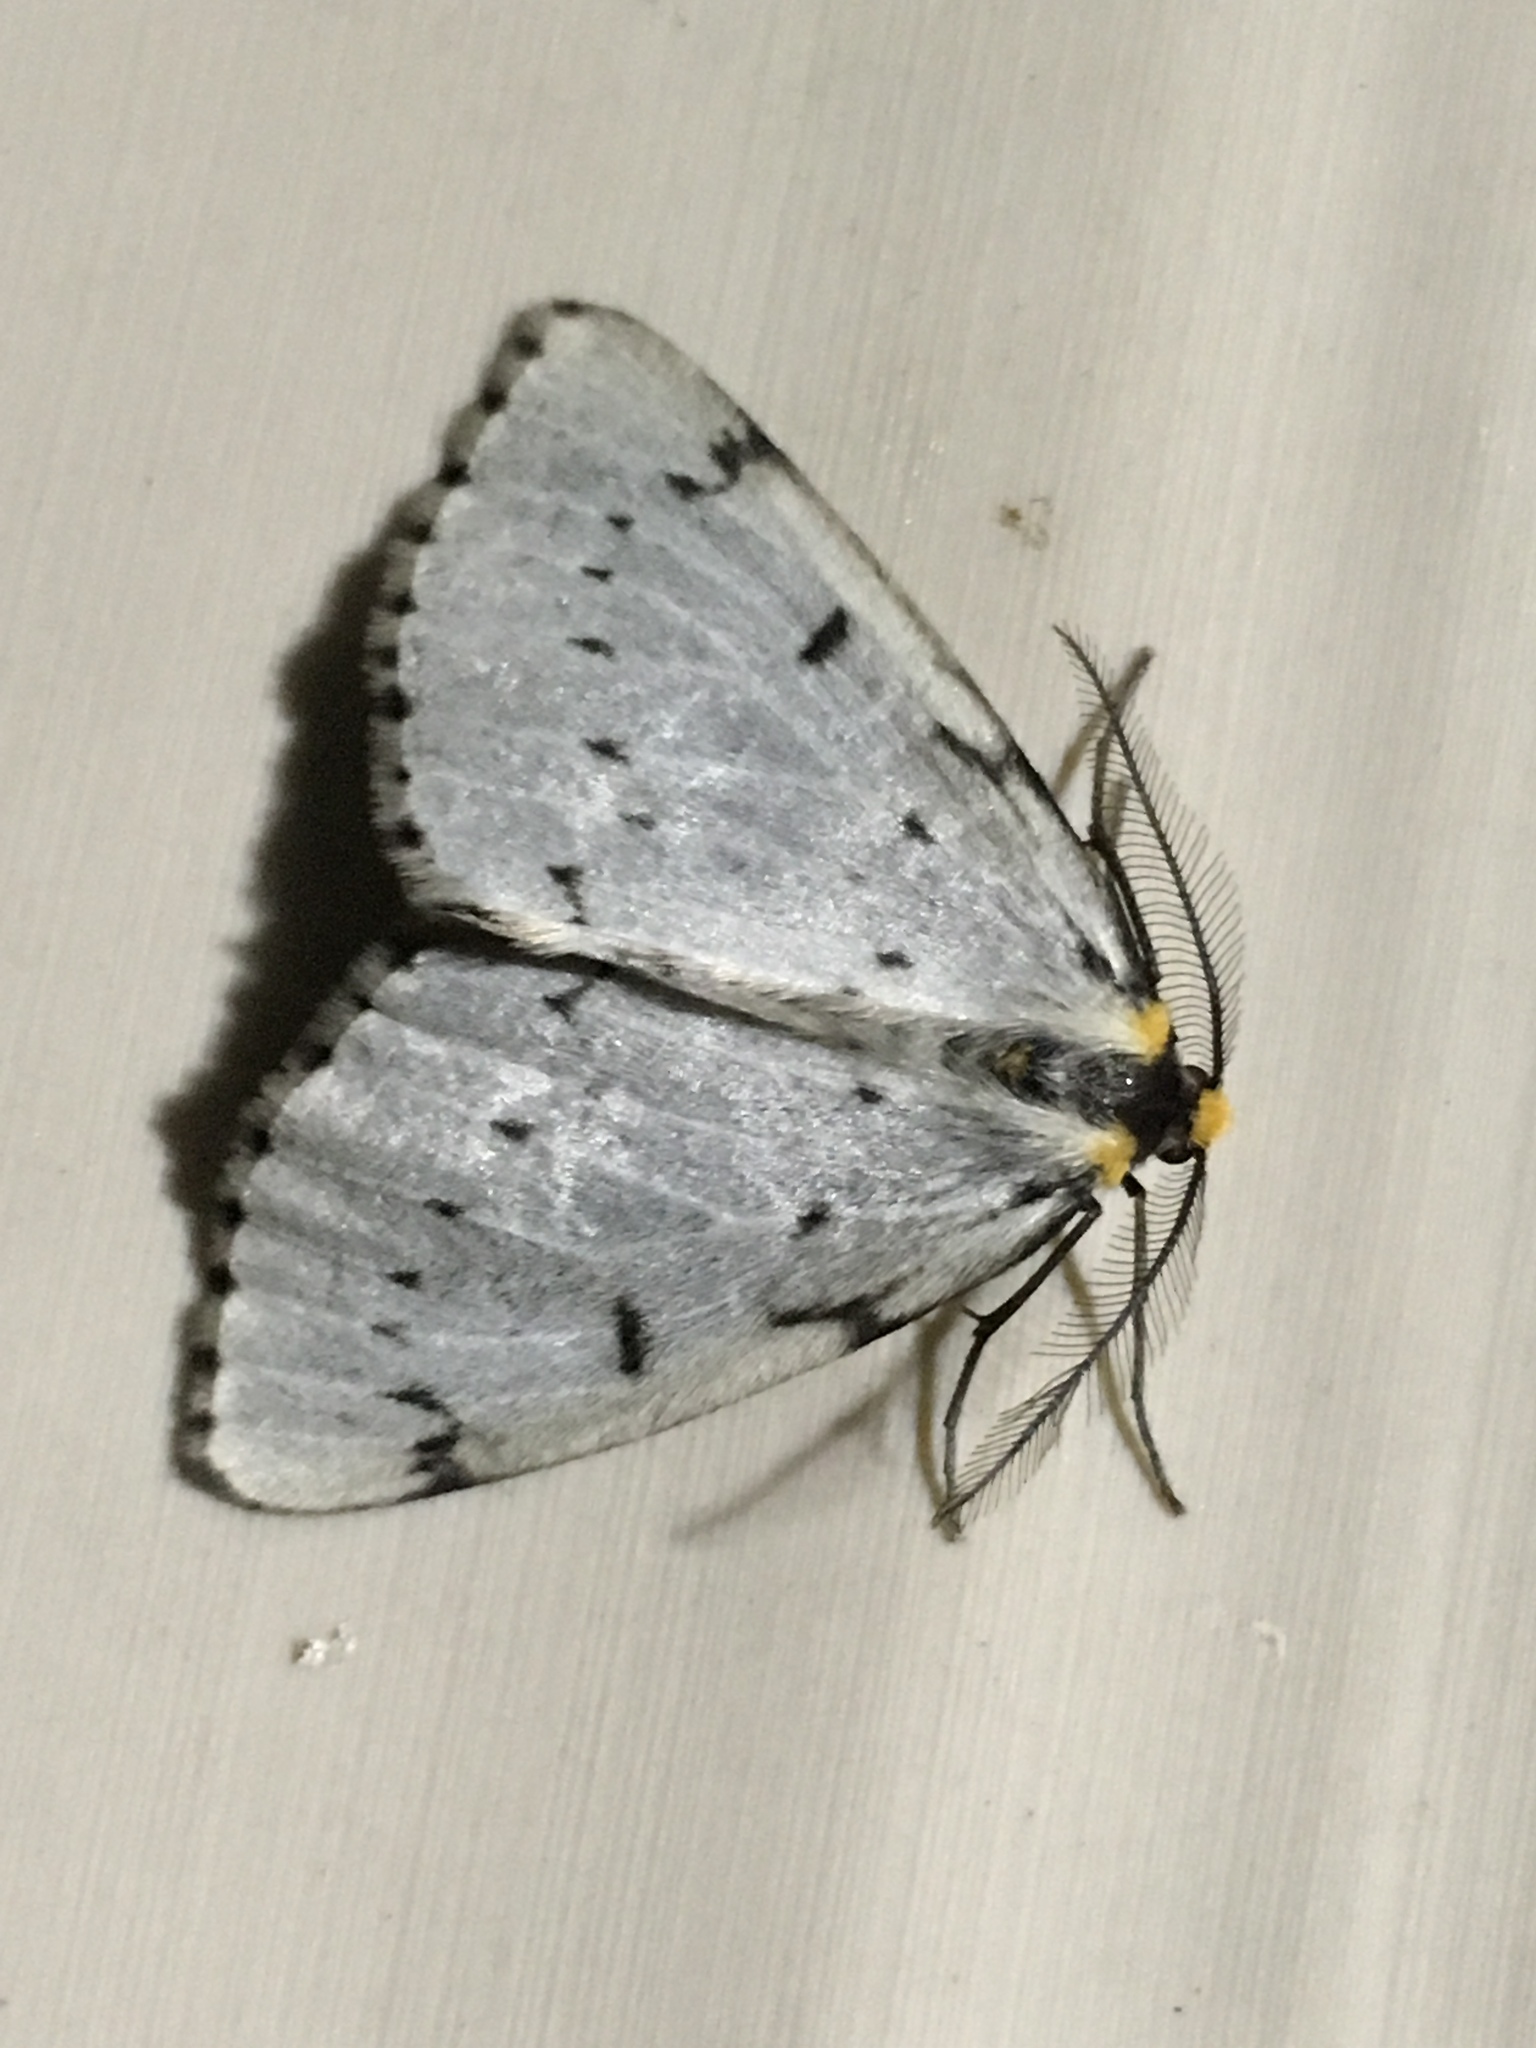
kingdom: Animalia
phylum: Arthropoda
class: Insecta
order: Lepidoptera
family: Geometridae
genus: Cingilia
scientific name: Cingilia catenaria
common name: Chain-dotted geometer
